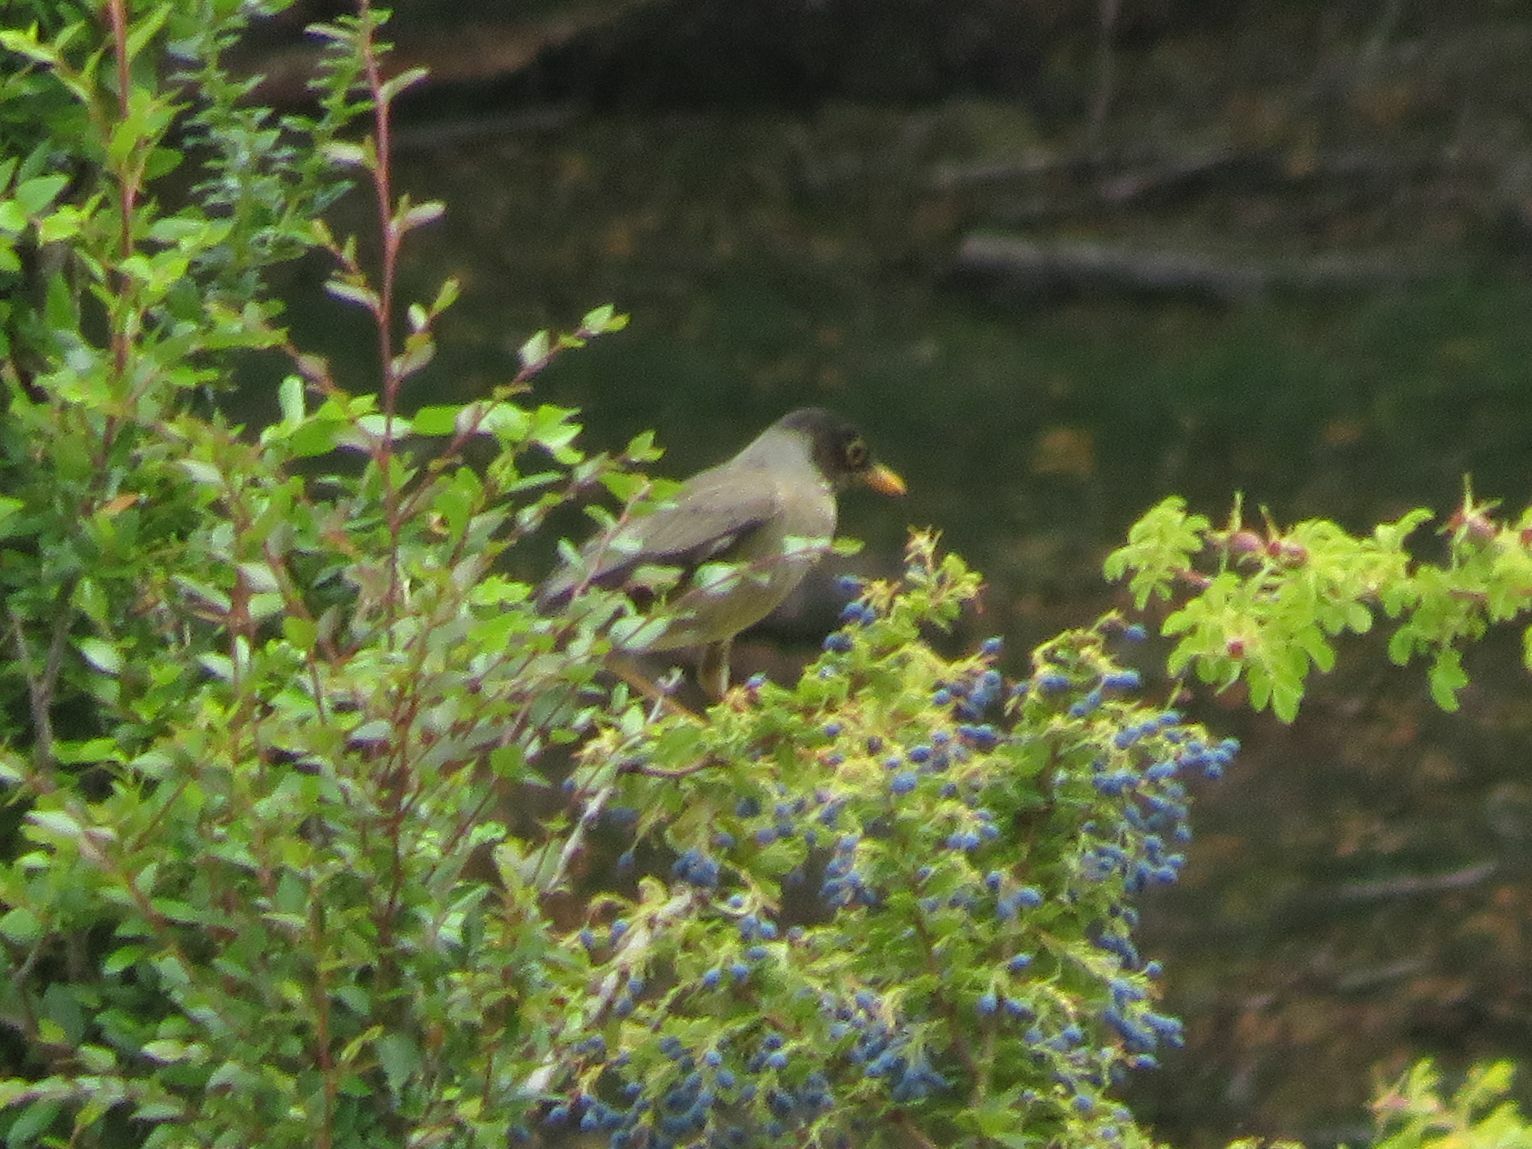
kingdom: Animalia
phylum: Chordata
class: Aves
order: Passeriformes
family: Turdidae
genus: Turdus
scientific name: Turdus falcklandii
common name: Austral thrush
